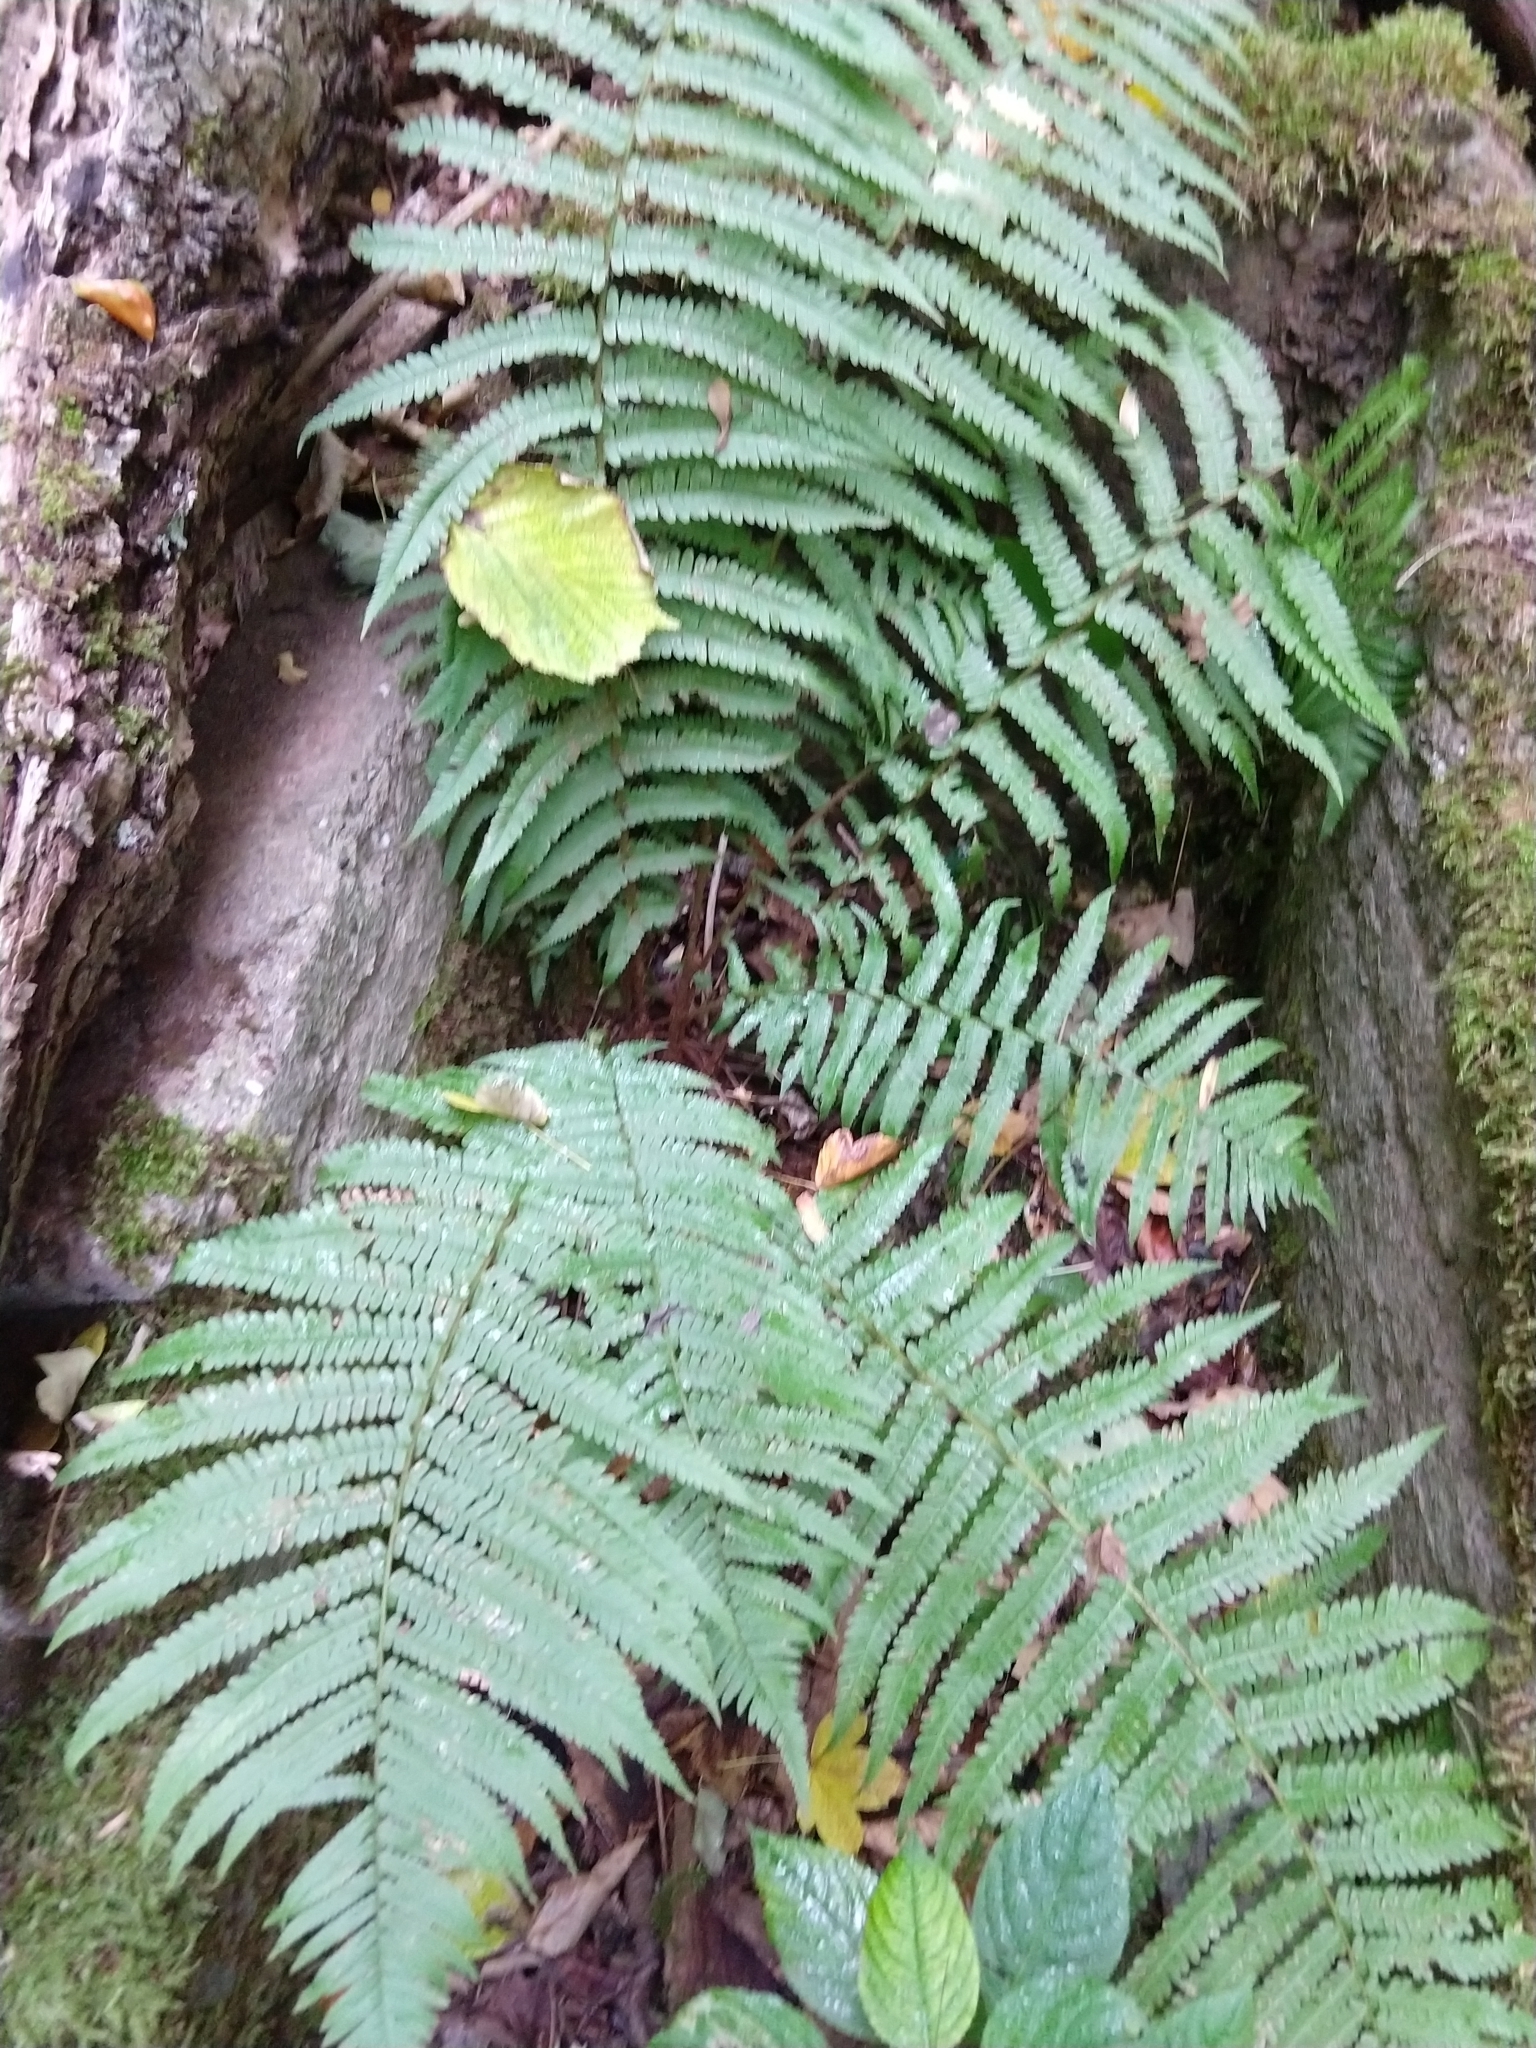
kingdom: Plantae
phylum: Tracheophyta
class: Polypodiopsida
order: Polypodiales
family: Dryopteridaceae
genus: Dryopteris
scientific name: Dryopteris filix-mas
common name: Male fern
